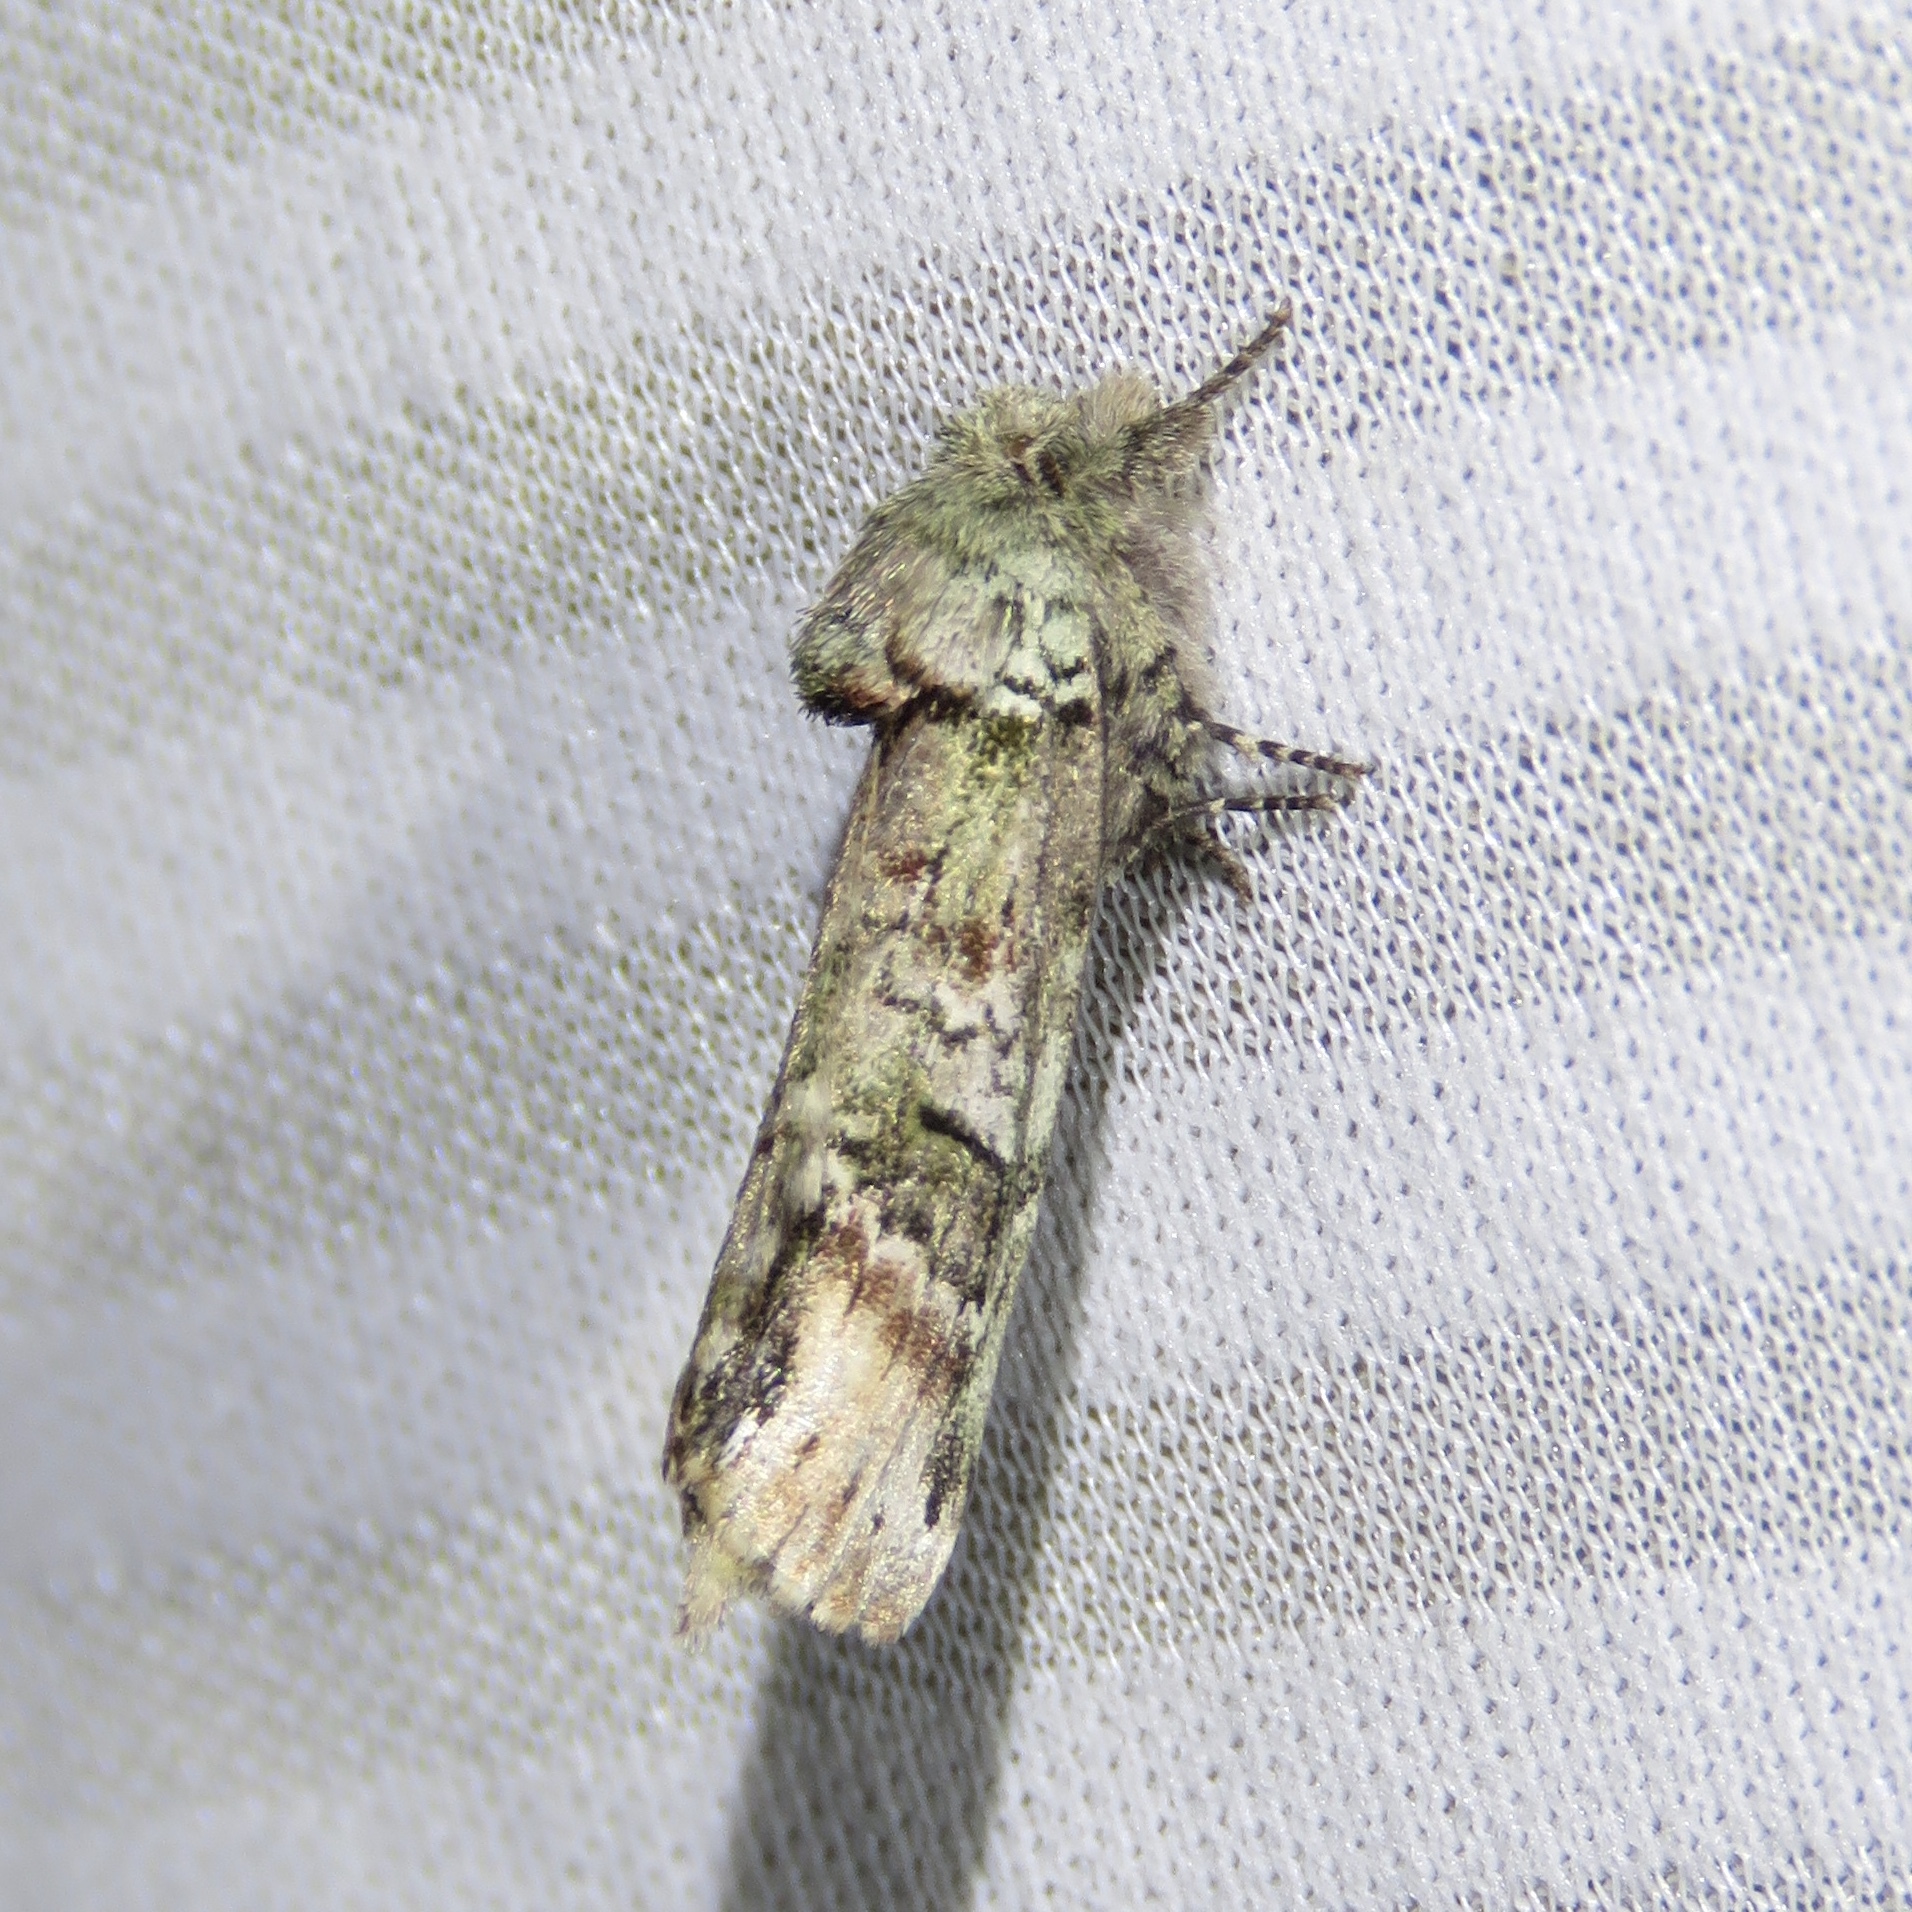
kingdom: Animalia
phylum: Arthropoda
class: Insecta
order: Lepidoptera
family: Notodontidae
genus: Schizura
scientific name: Schizura
